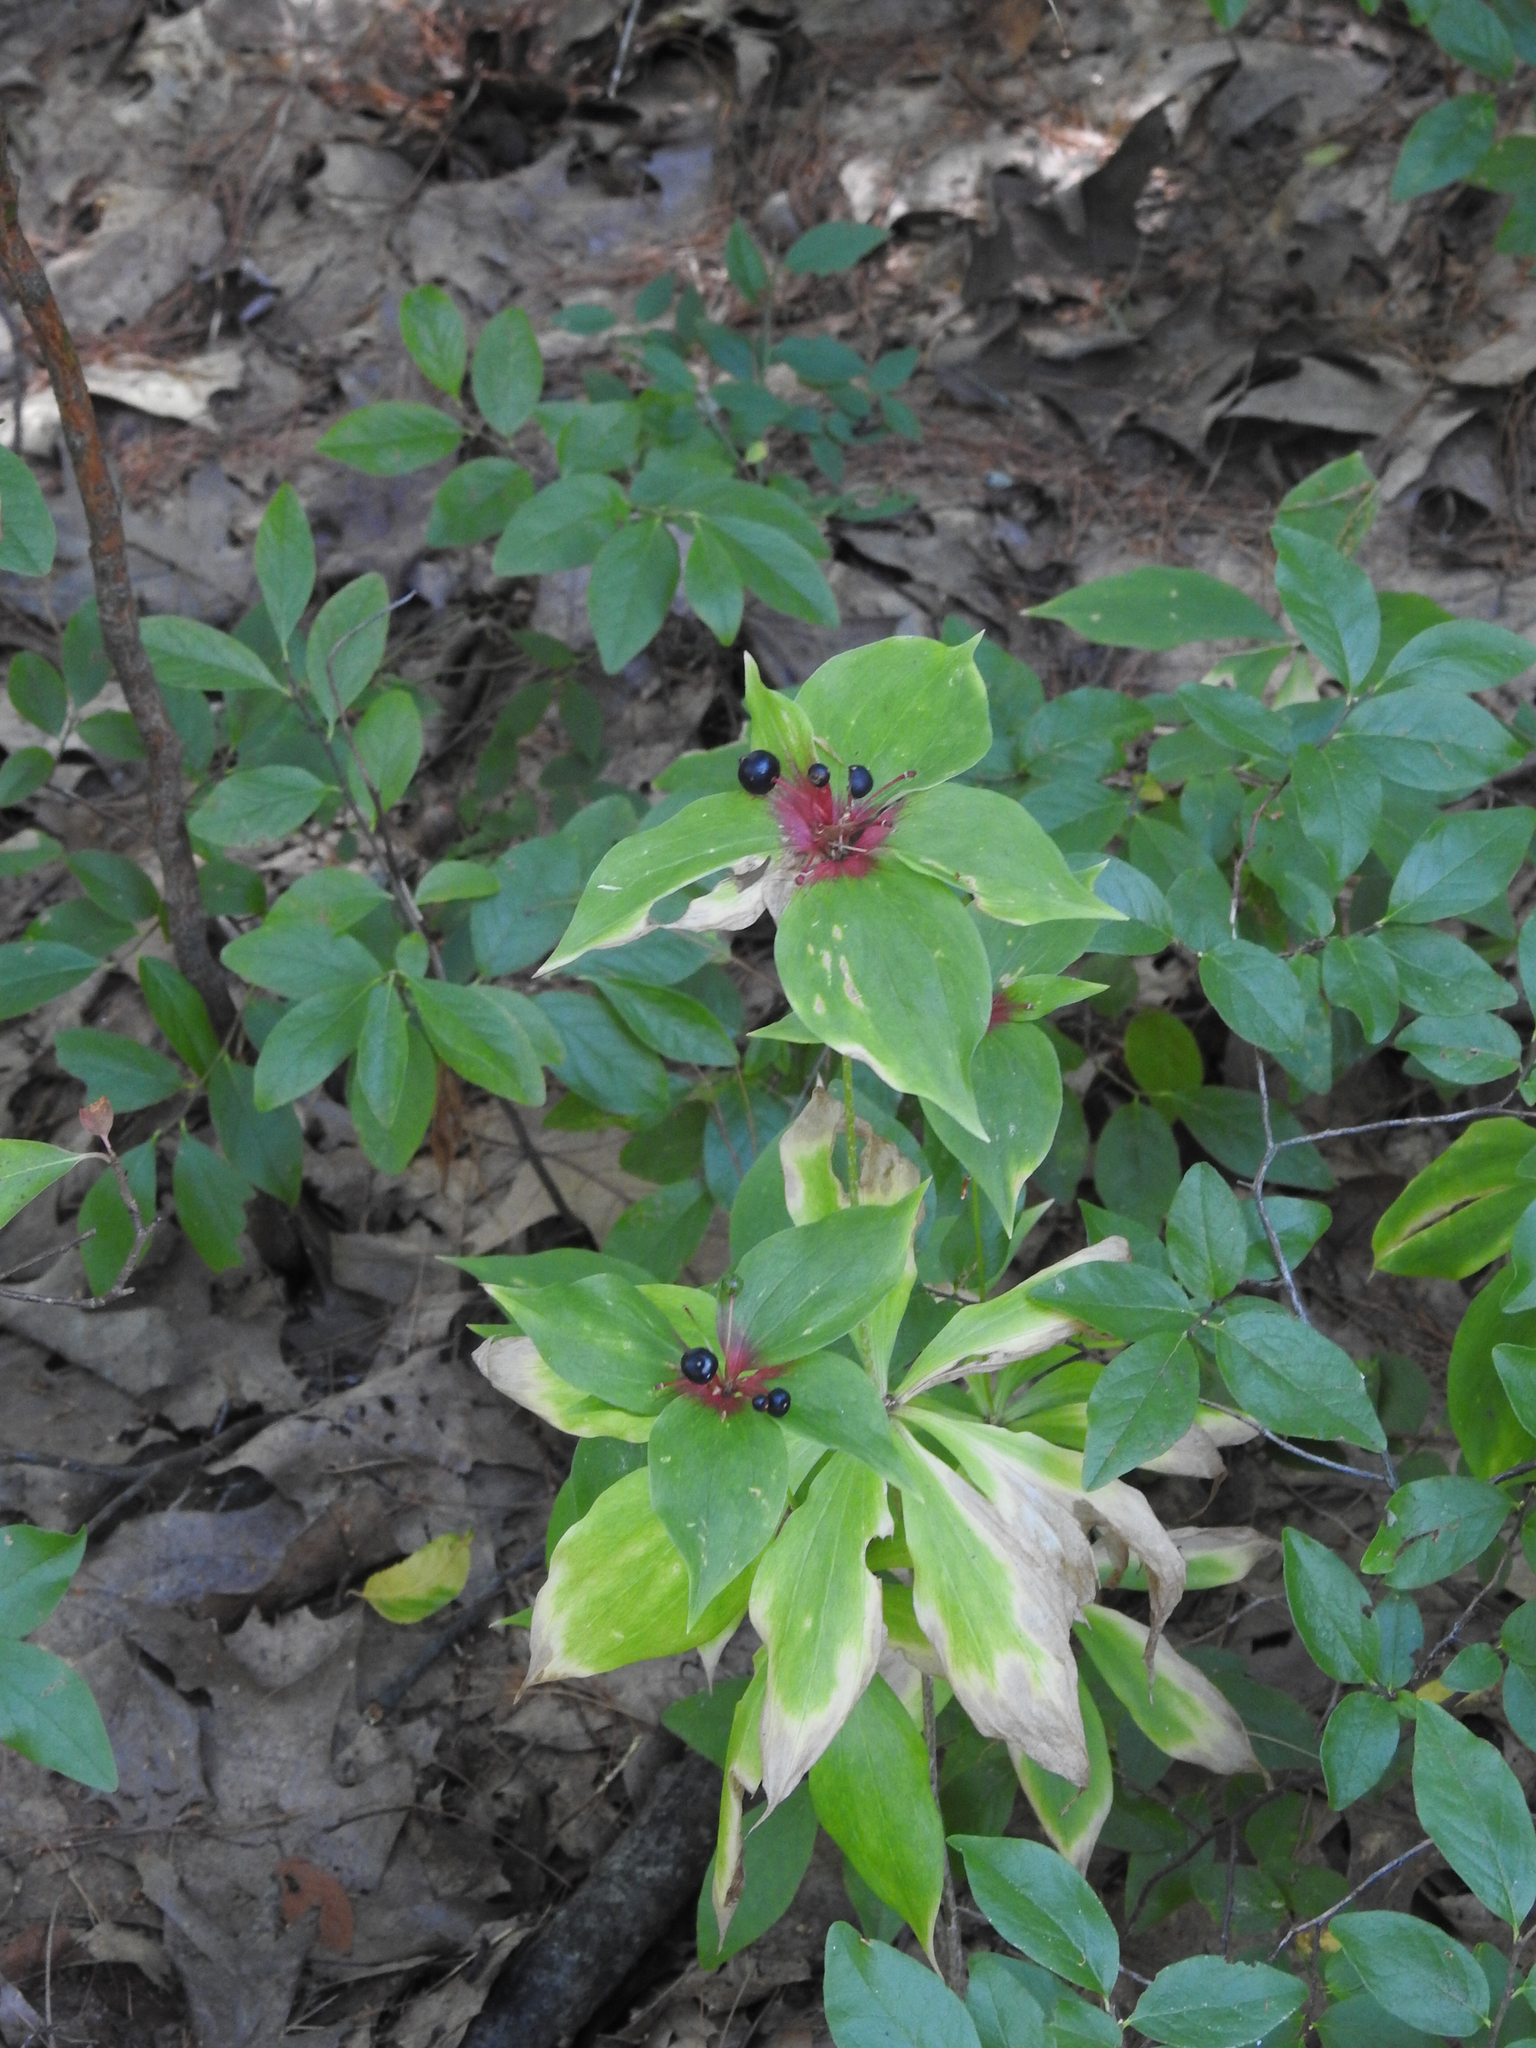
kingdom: Plantae
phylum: Tracheophyta
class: Liliopsida
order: Liliales
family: Liliaceae
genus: Medeola
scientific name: Medeola virginiana
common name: Indian cucumber-root
